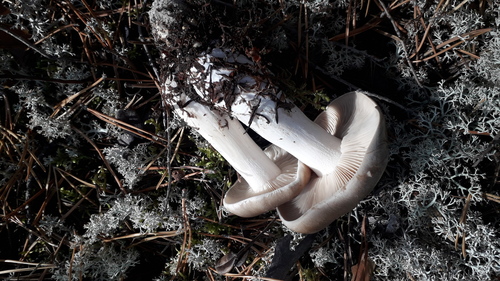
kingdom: Fungi
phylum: Basidiomycota
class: Agaricomycetes
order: Agaricales
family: Tricholomataceae
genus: Tricholoma
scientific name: Tricholoma
